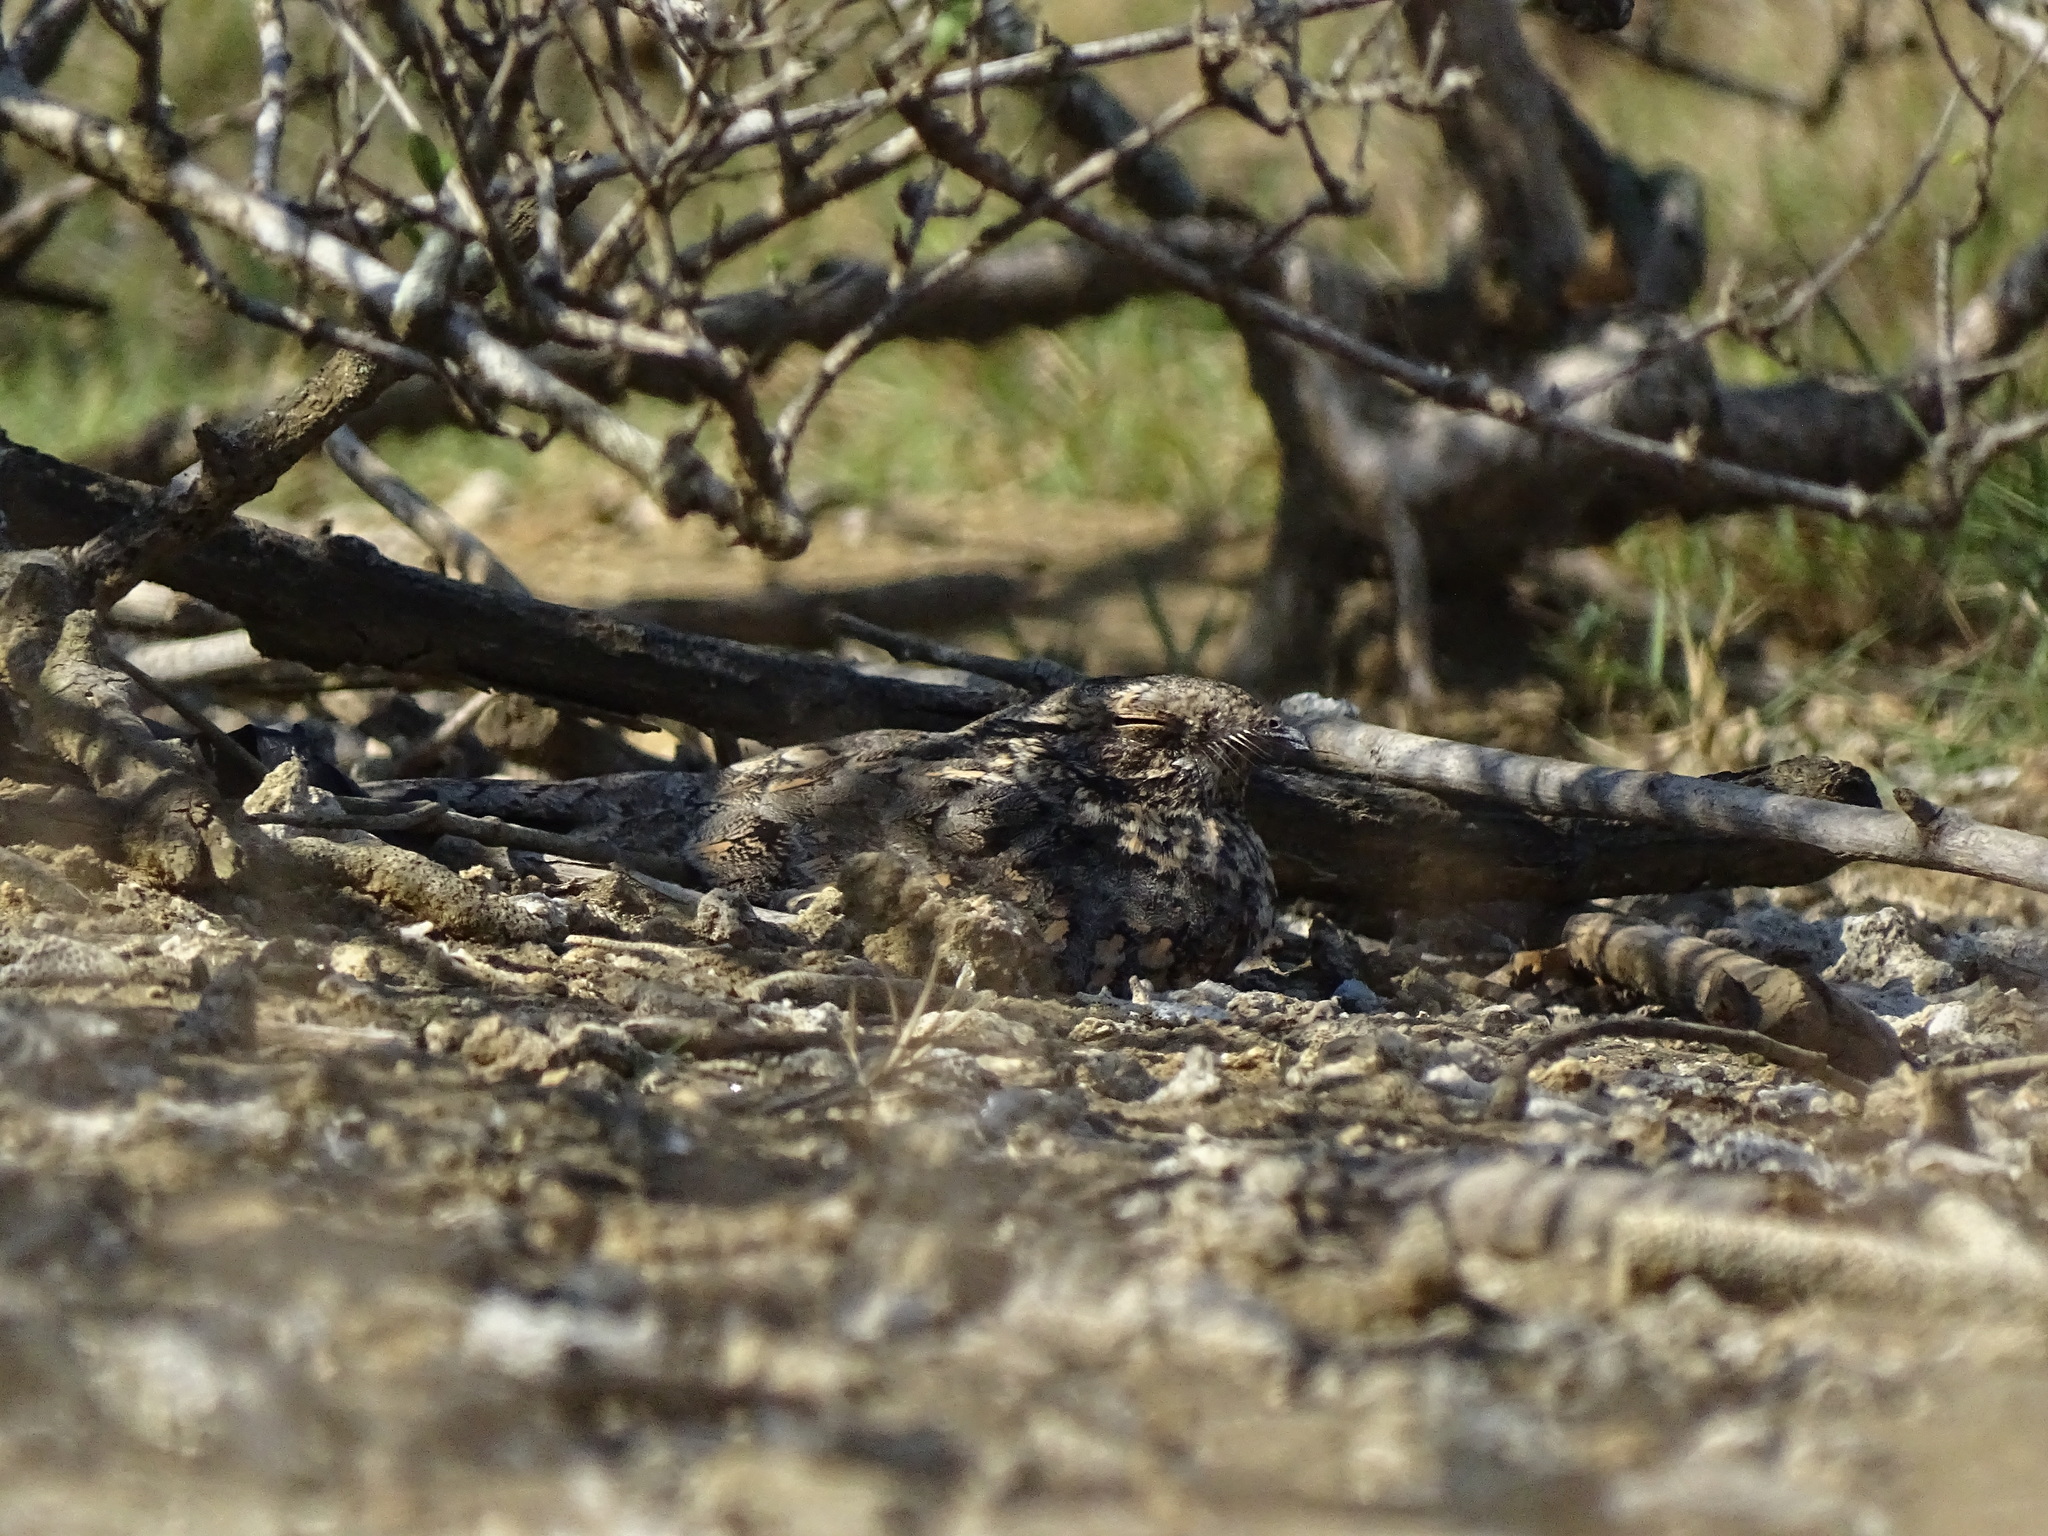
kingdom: Animalia
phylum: Chordata
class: Aves
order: Caprimulgiformes
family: Caprimulgidae
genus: Caprimulgus
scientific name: Caprimulgus affinis
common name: Savanna nightjar
